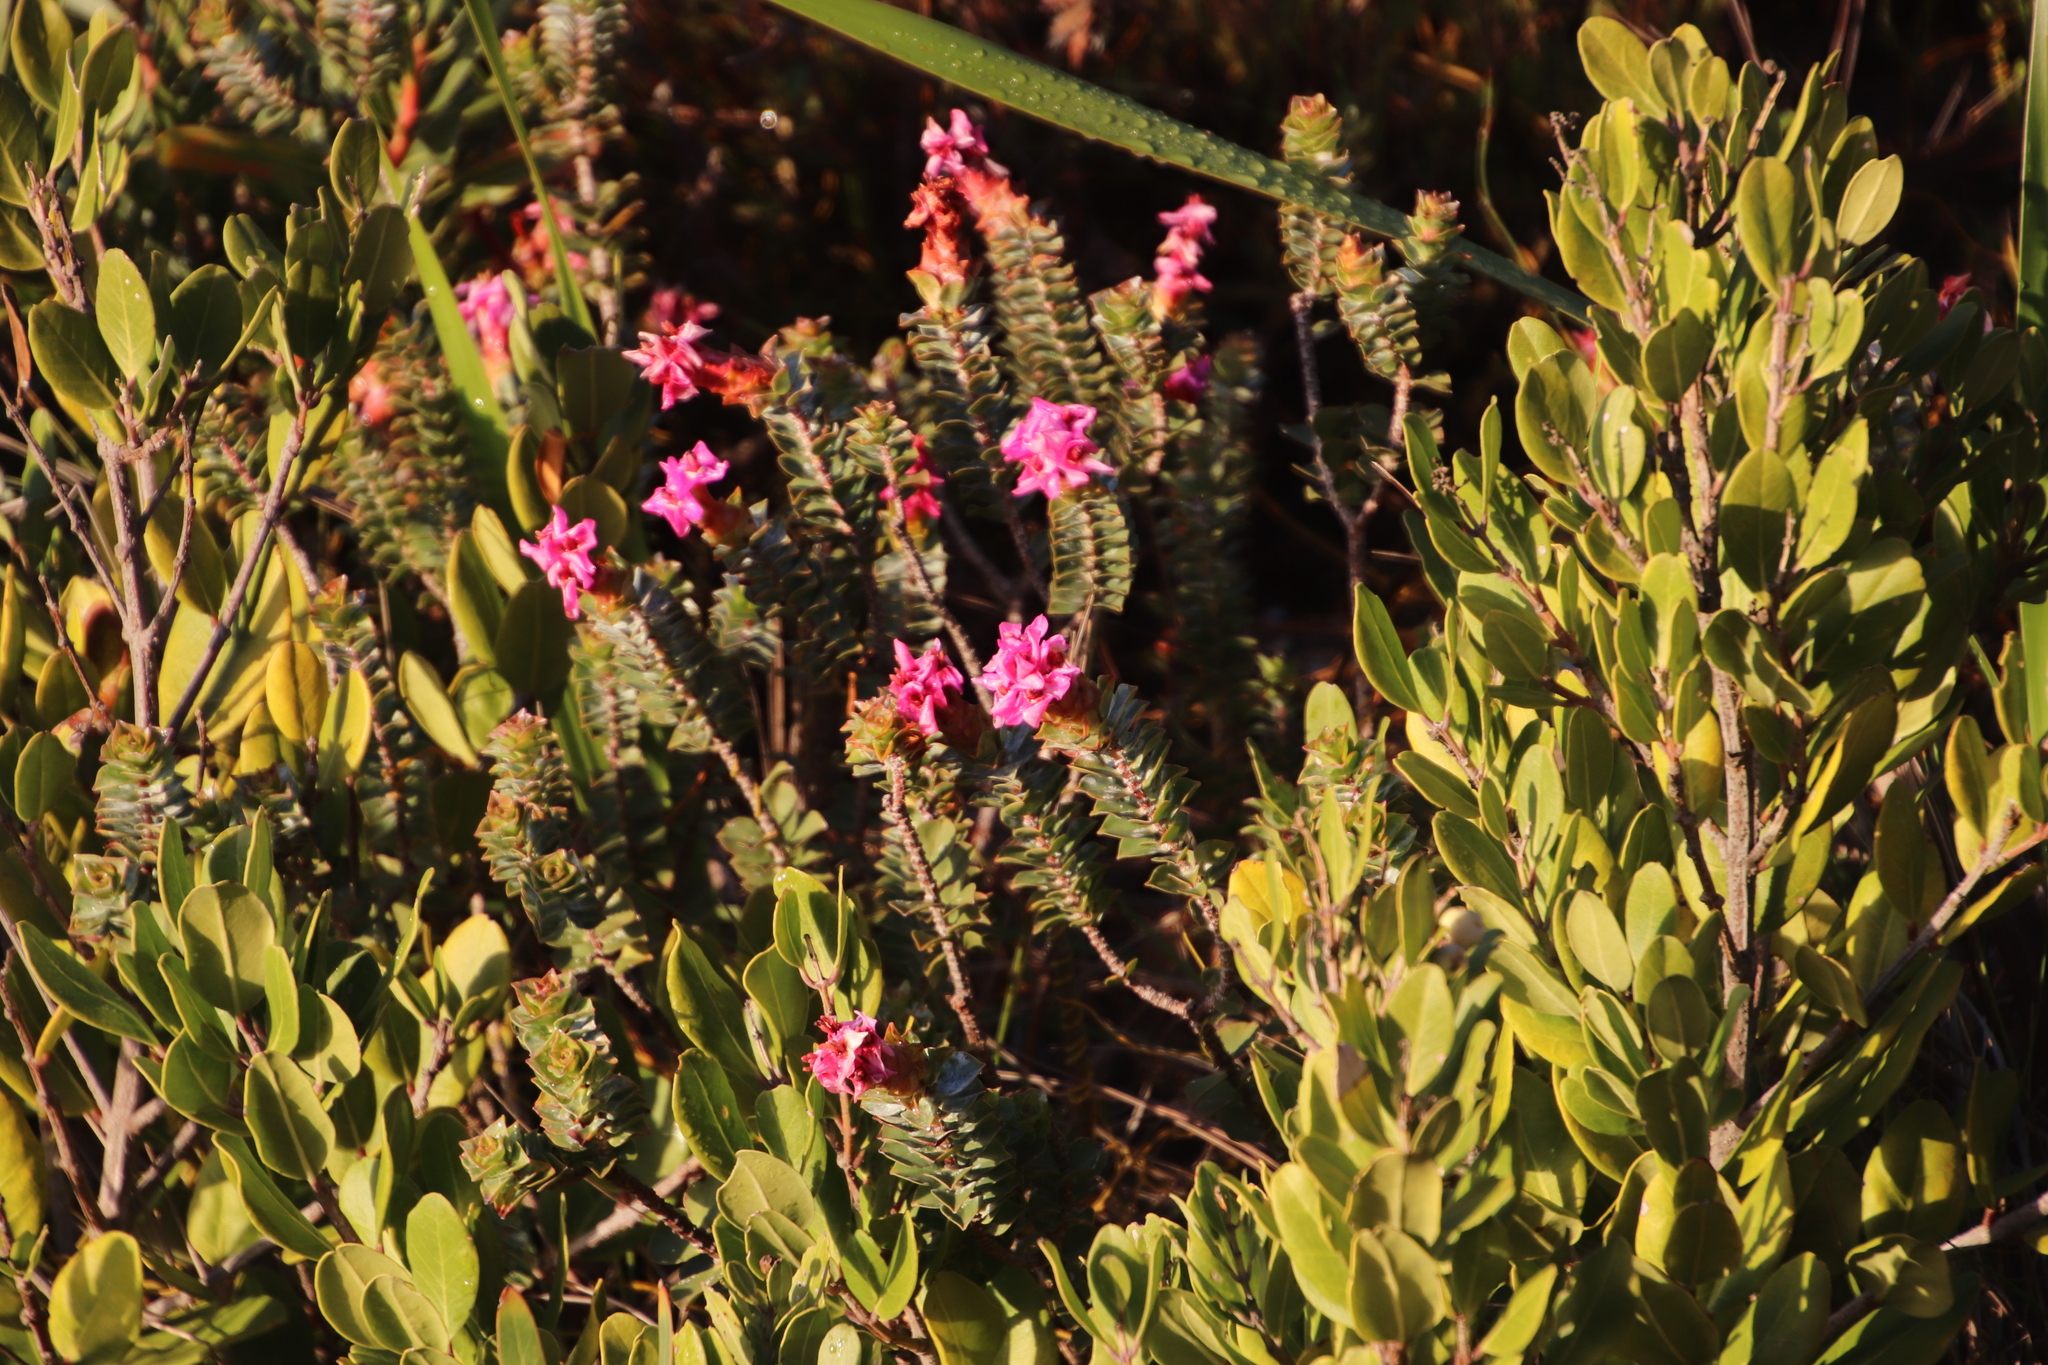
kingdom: Plantae
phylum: Tracheophyta
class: Magnoliopsida
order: Myrtales
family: Penaeaceae
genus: Saltera
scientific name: Saltera sarcocolla
